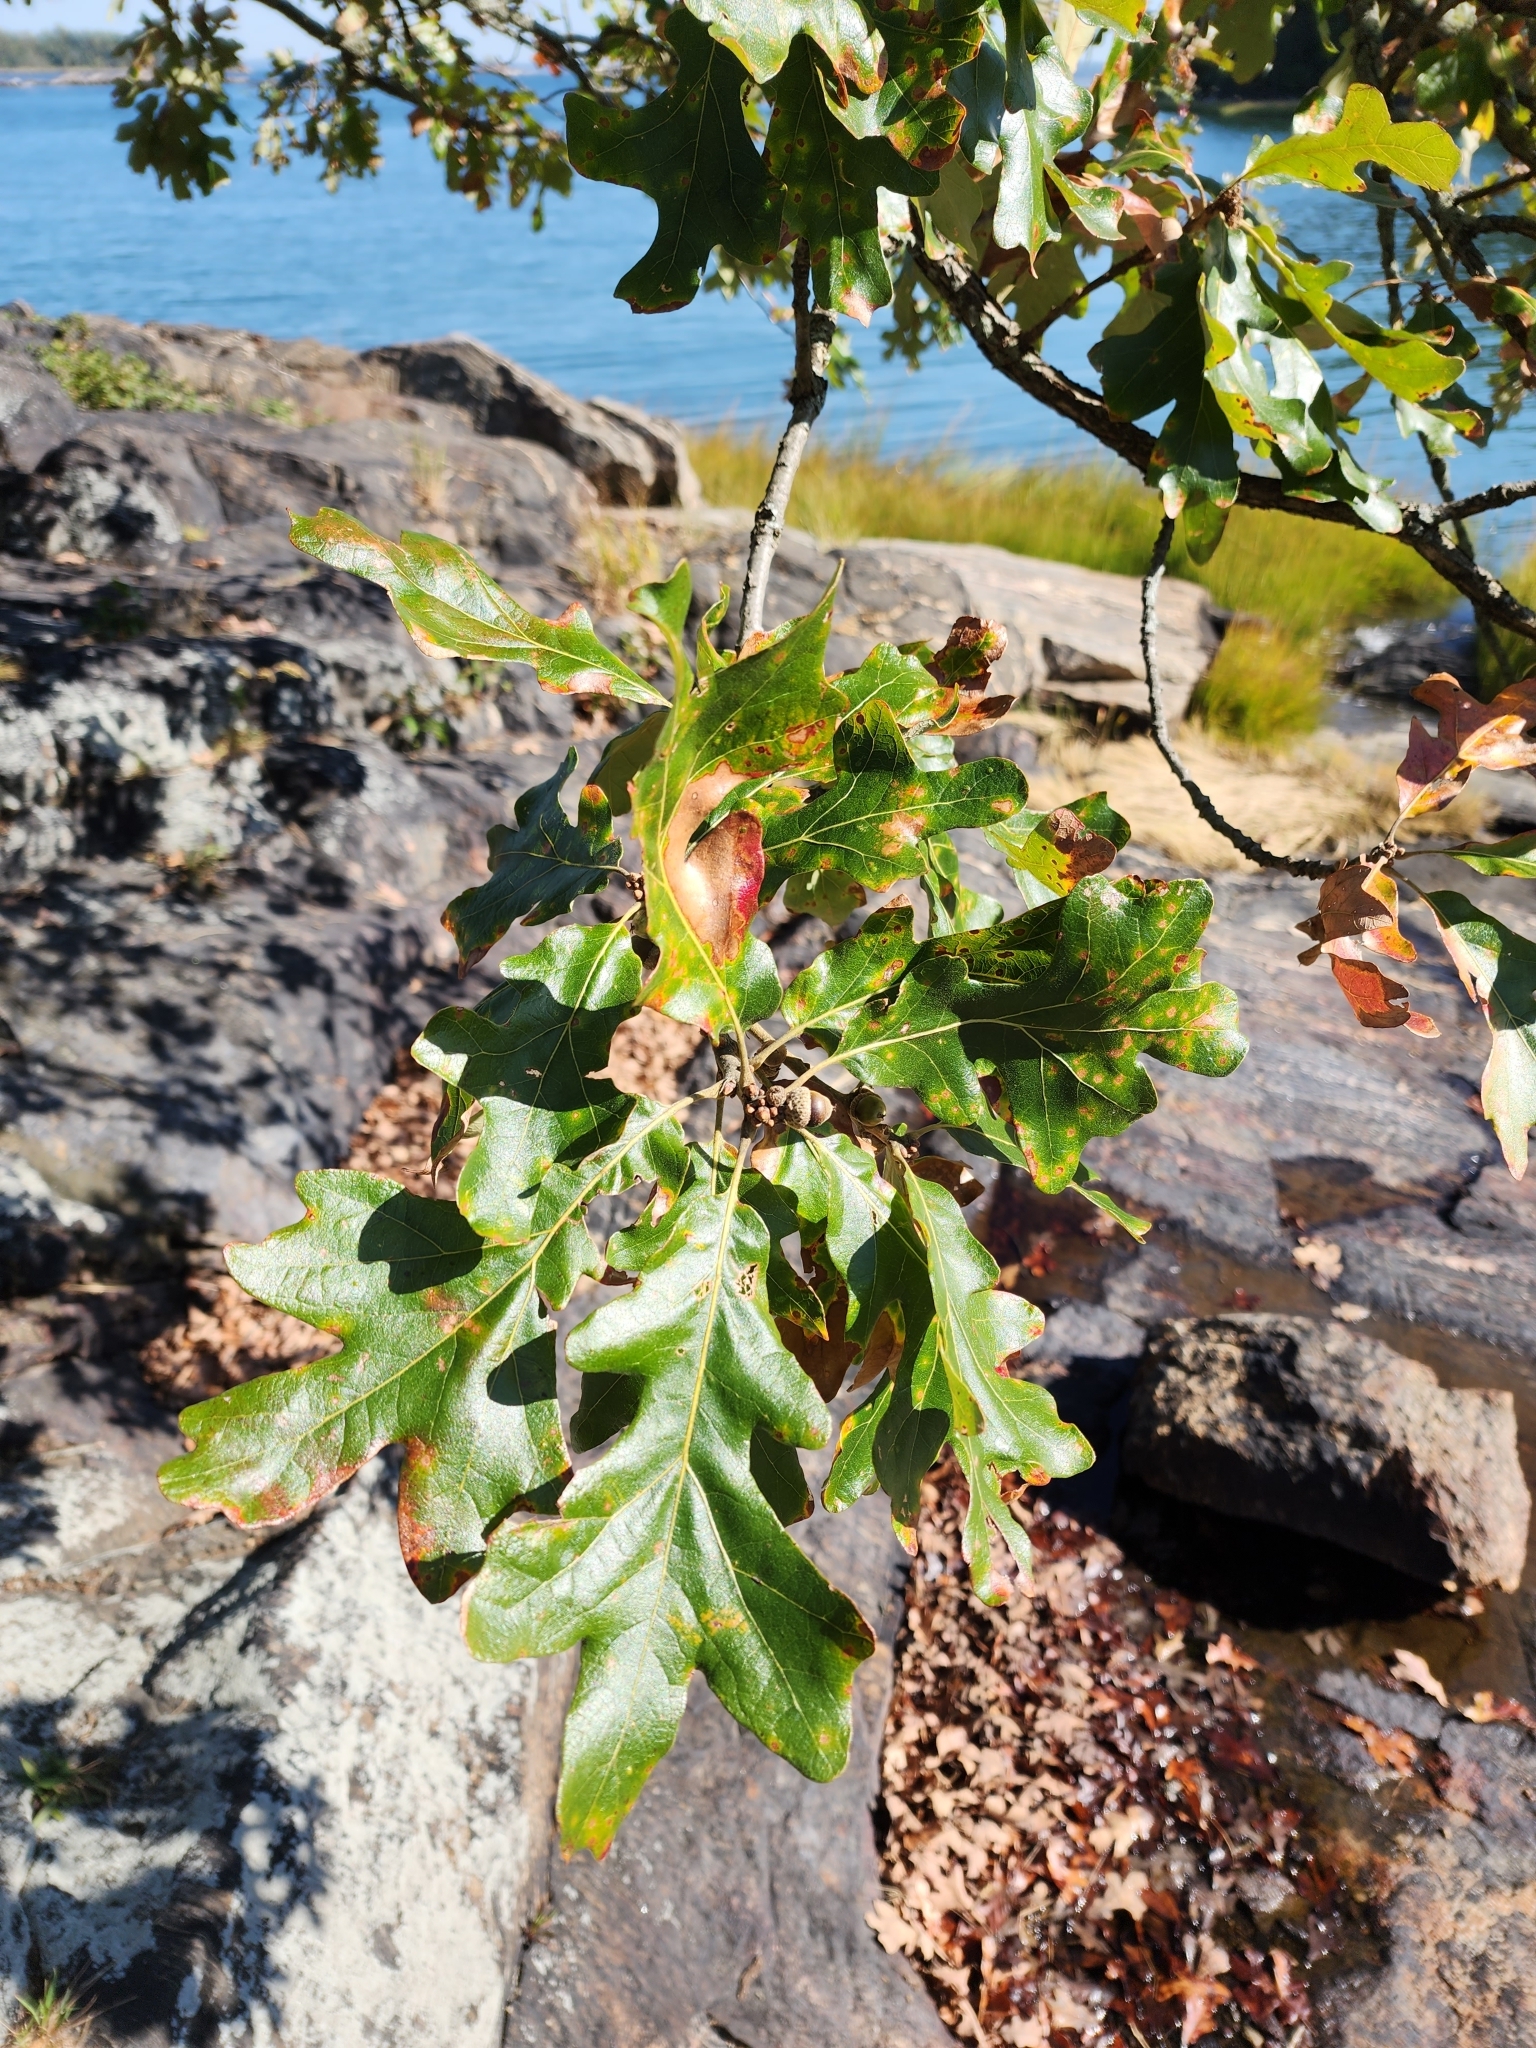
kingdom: Plantae
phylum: Tracheophyta
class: Magnoliopsida
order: Fagales
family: Fagaceae
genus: Quercus
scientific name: Quercus stellata
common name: Post oak
